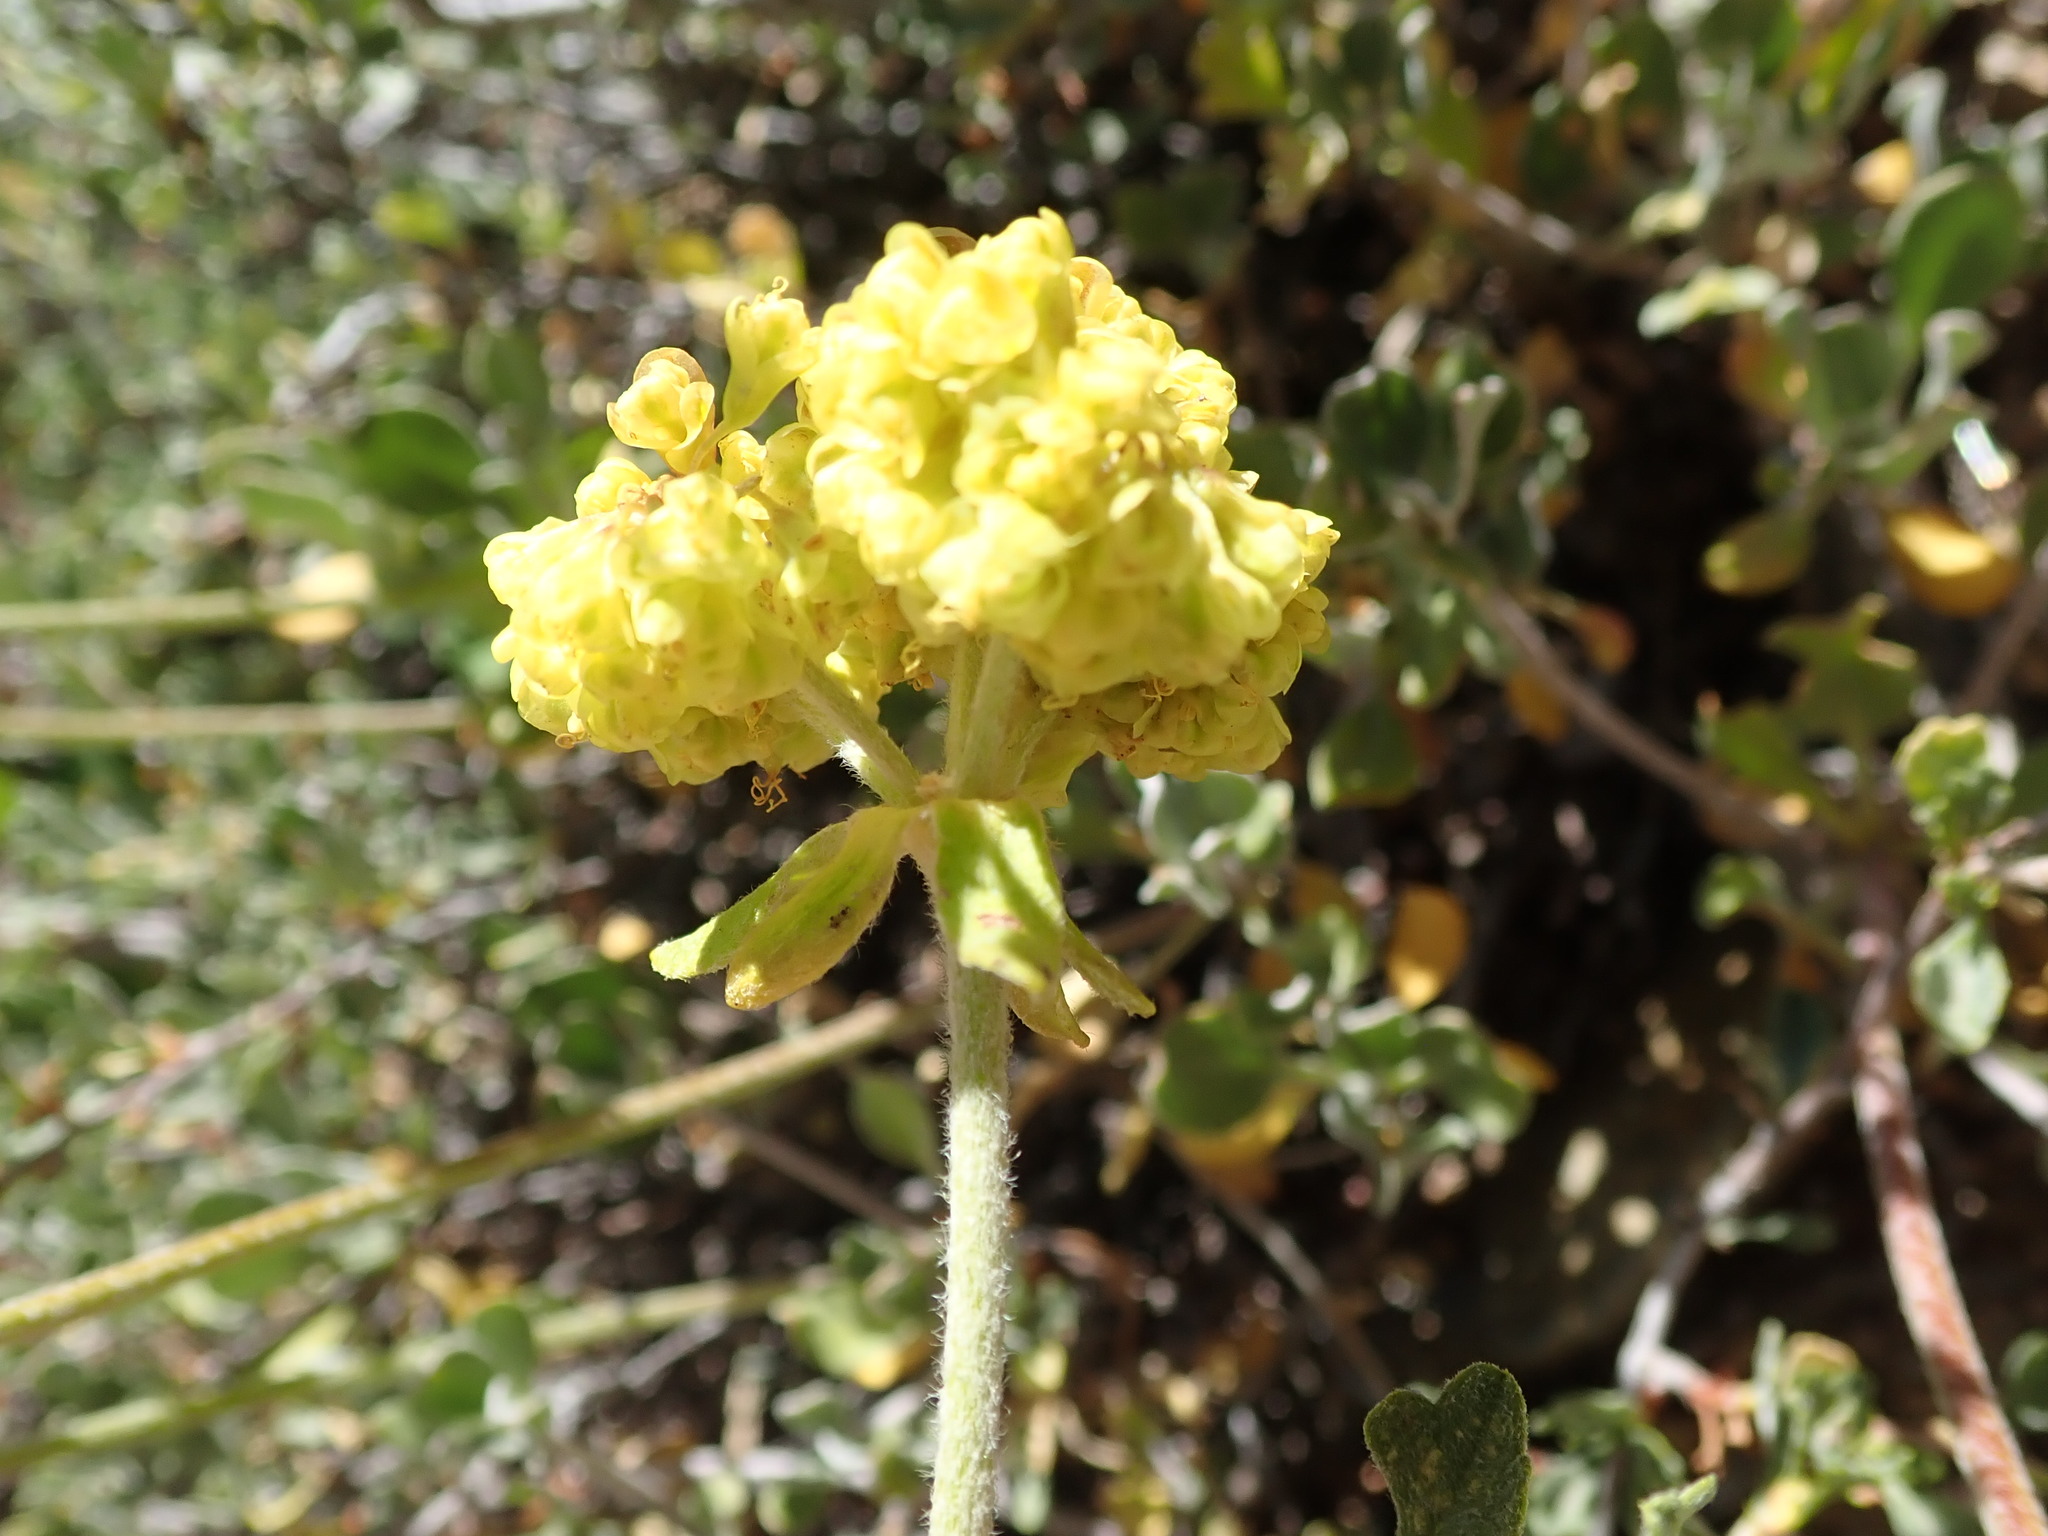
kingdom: Plantae
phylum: Tracheophyta
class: Magnoliopsida
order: Caryophyllales
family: Polygonaceae
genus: Eriogonum
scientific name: Eriogonum umbellatum
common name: Sulfur-buckwheat
